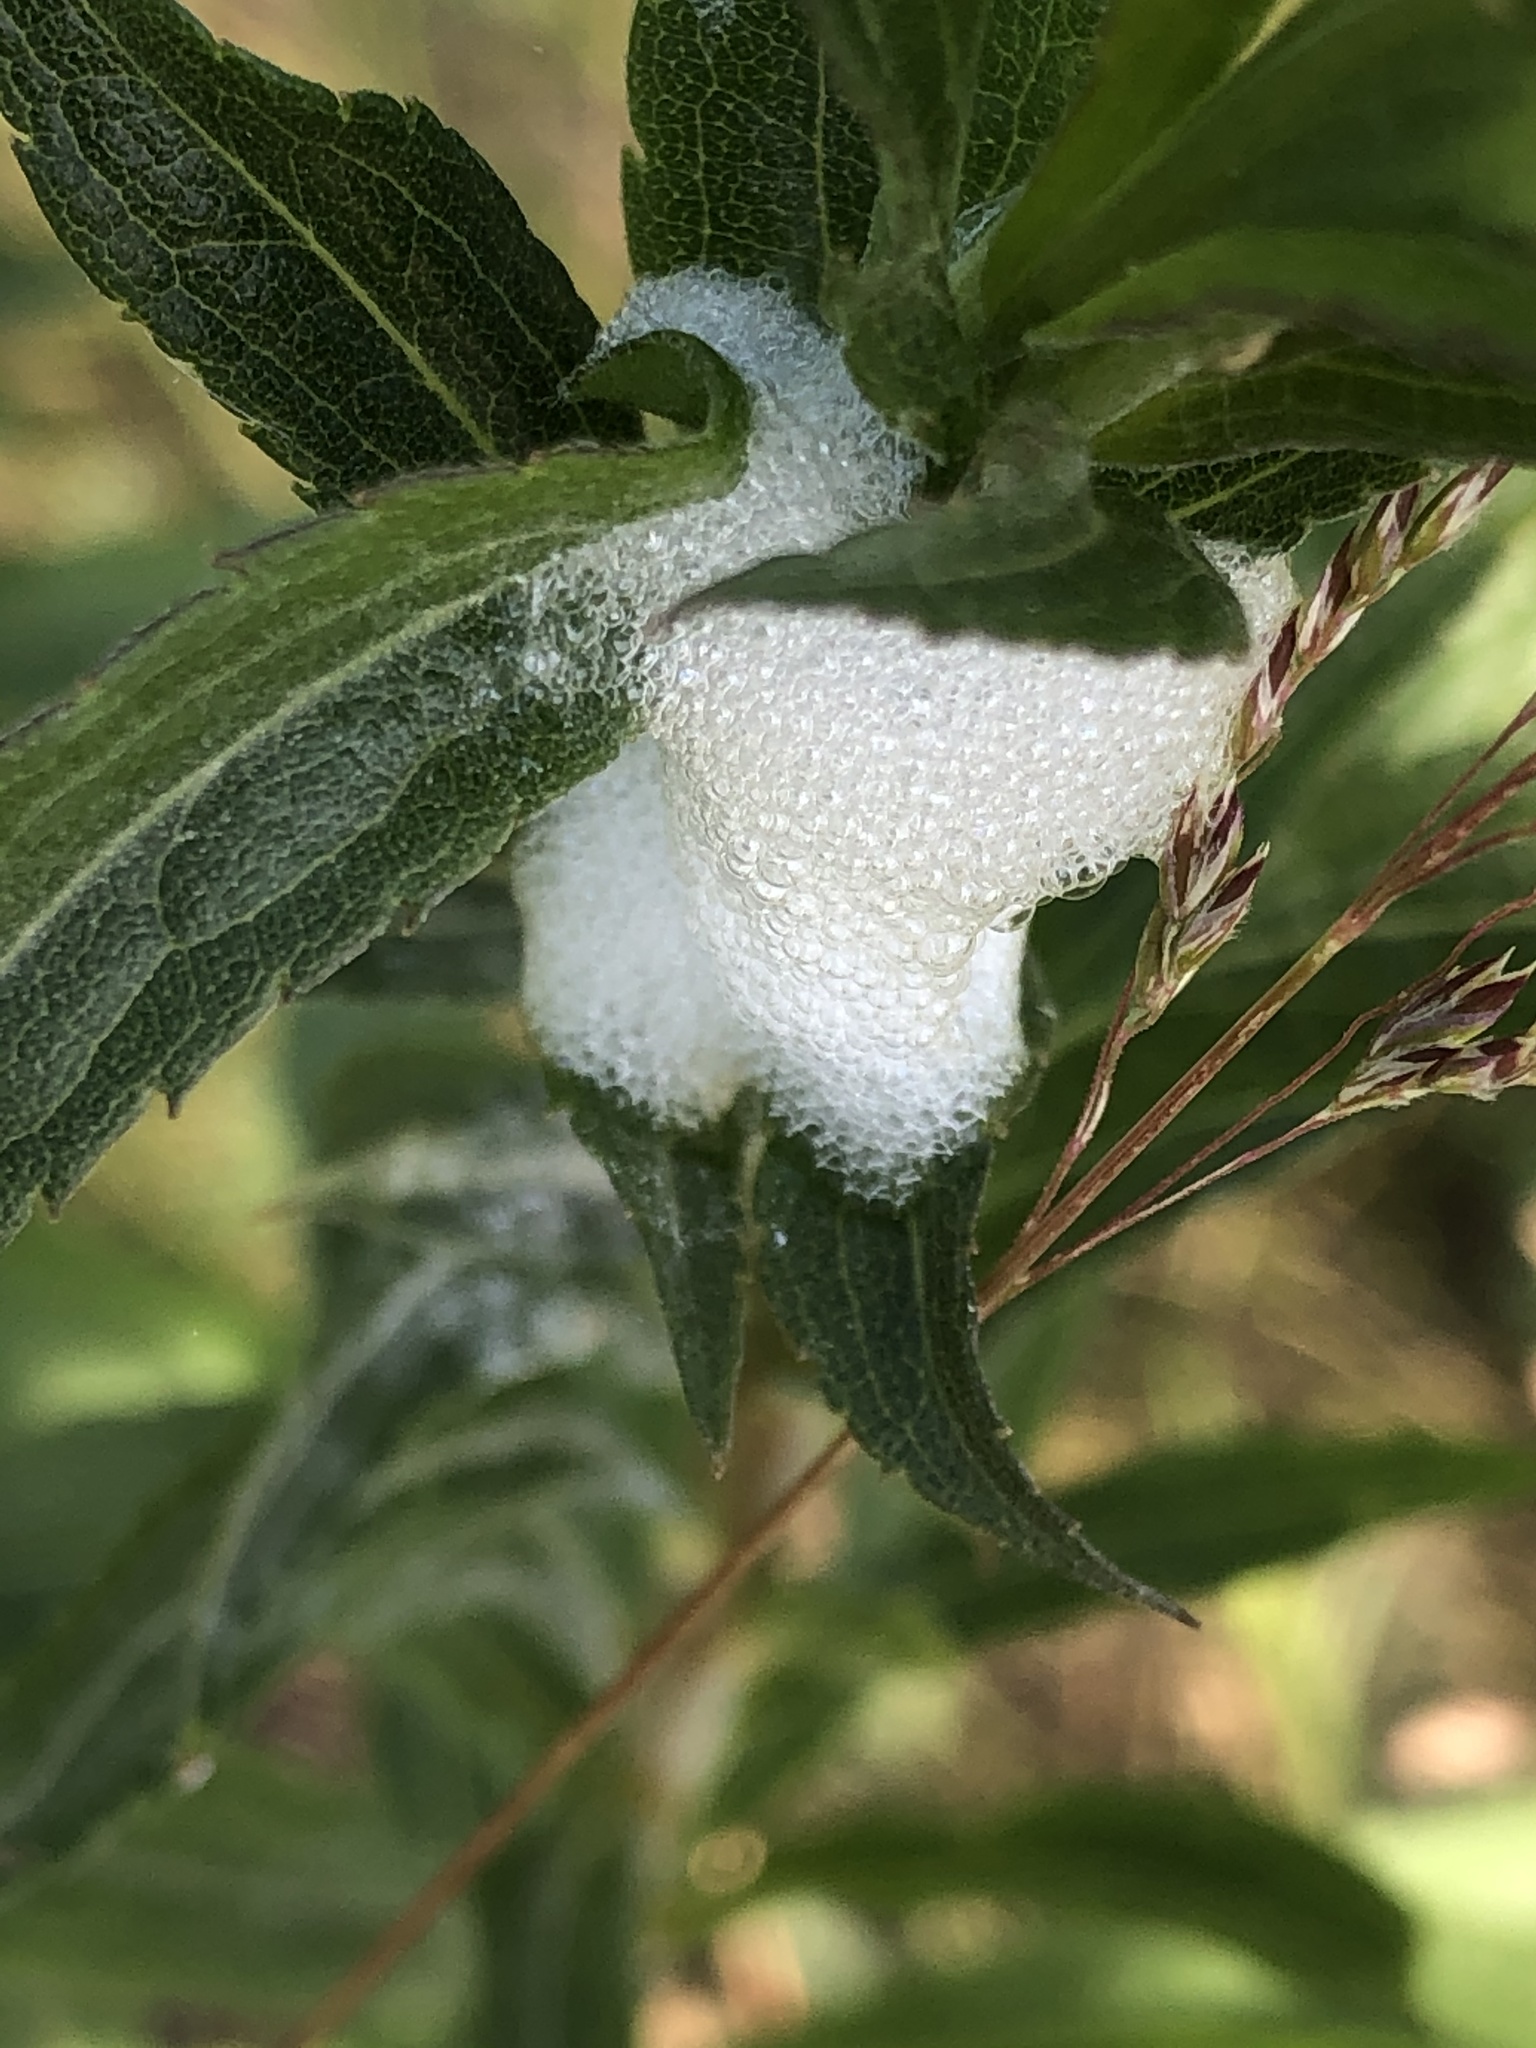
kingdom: Animalia
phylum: Arthropoda
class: Insecta
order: Hemiptera
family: Aphrophoridae
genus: Philaenus
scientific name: Philaenus spumarius
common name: Meadow spittlebug
